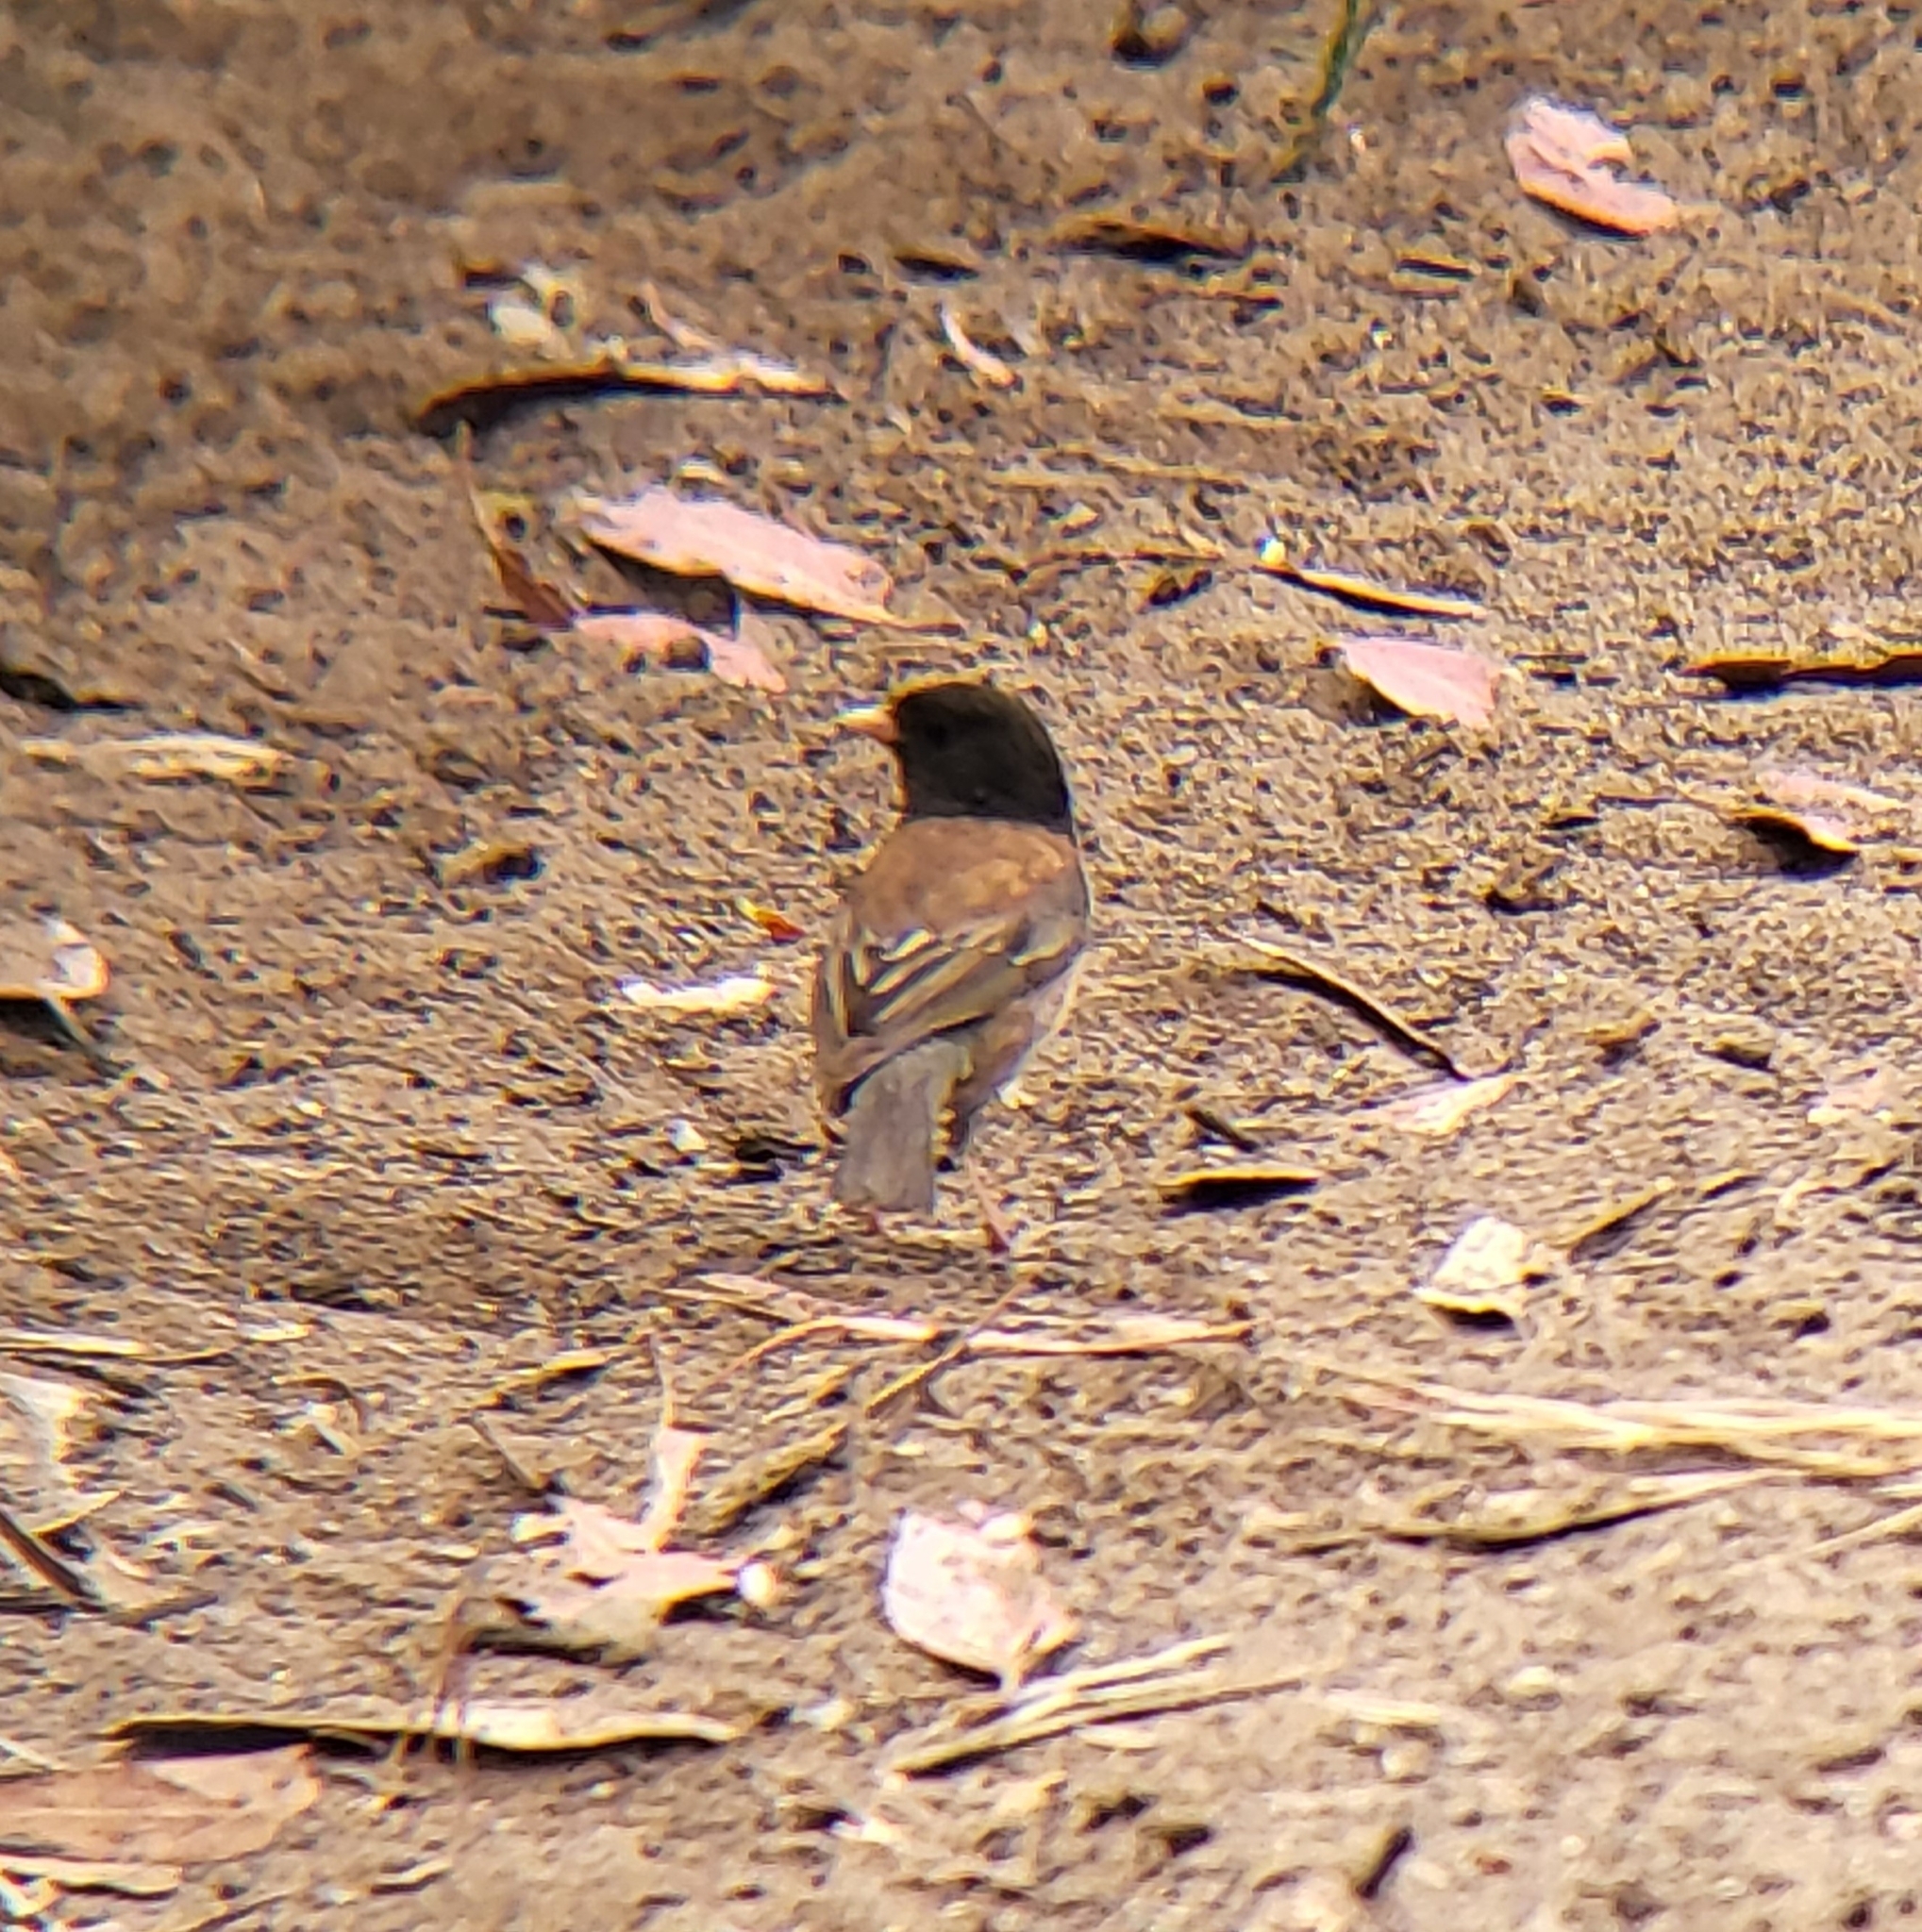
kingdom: Animalia
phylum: Chordata
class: Aves
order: Passeriformes
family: Passerellidae
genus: Junco
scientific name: Junco hyemalis
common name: Dark-eyed junco
